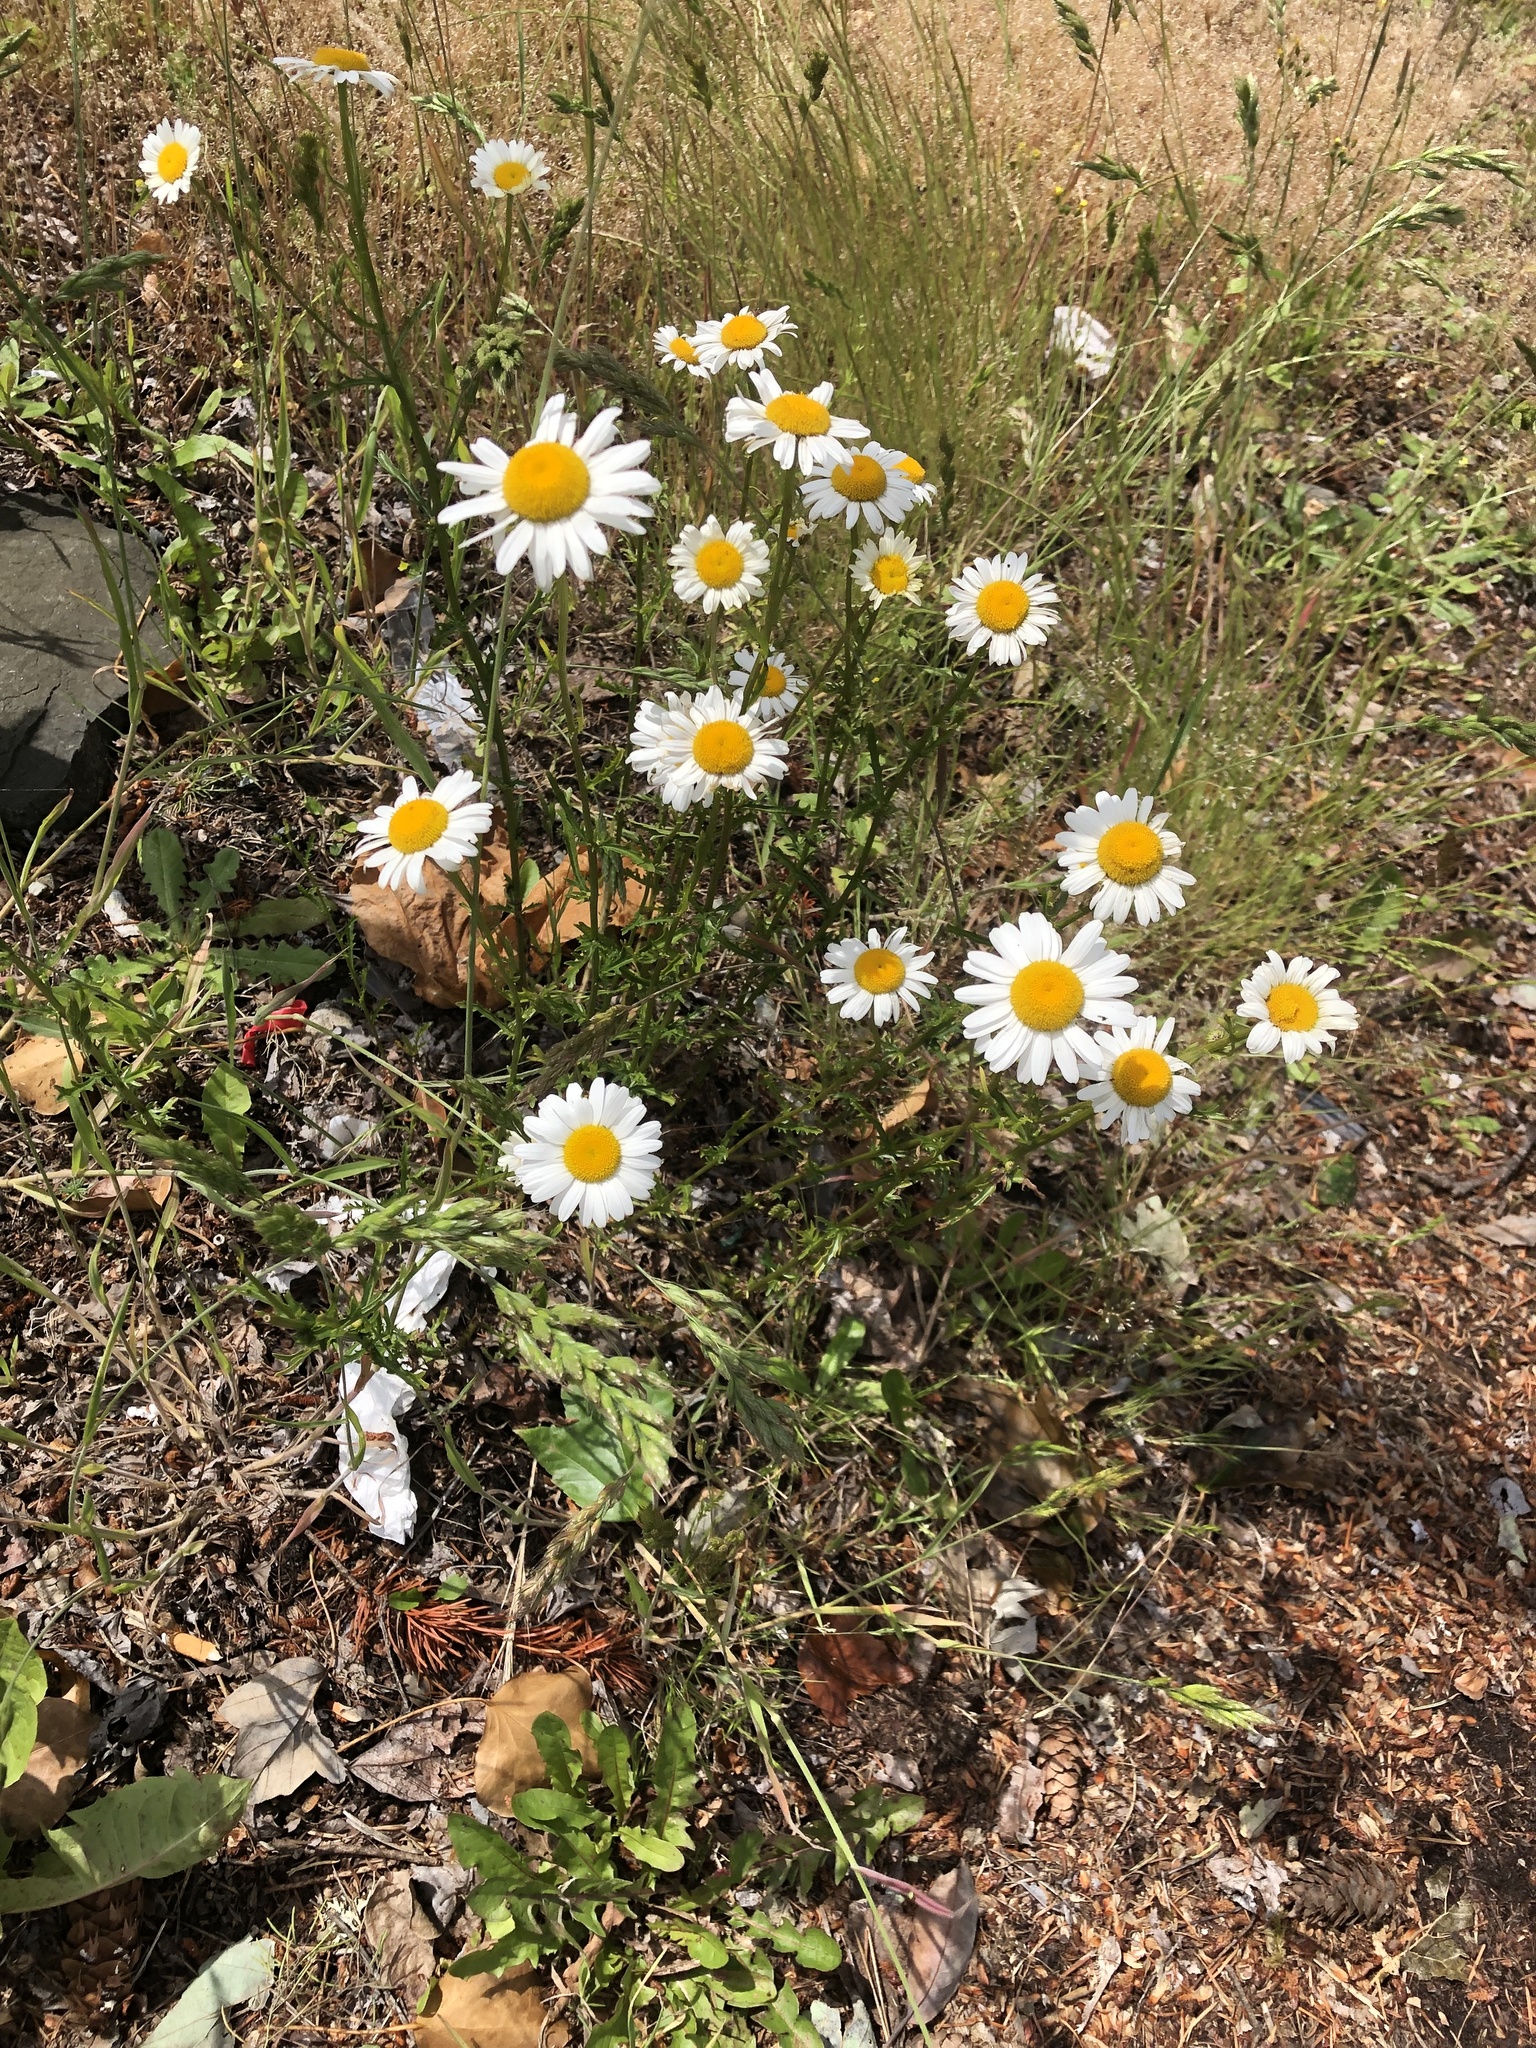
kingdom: Plantae
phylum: Tracheophyta
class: Magnoliopsida
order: Asterales
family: Asteraceae
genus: Leucanthemum
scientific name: Leucanthemum vulgare
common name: Oxeye daisy
